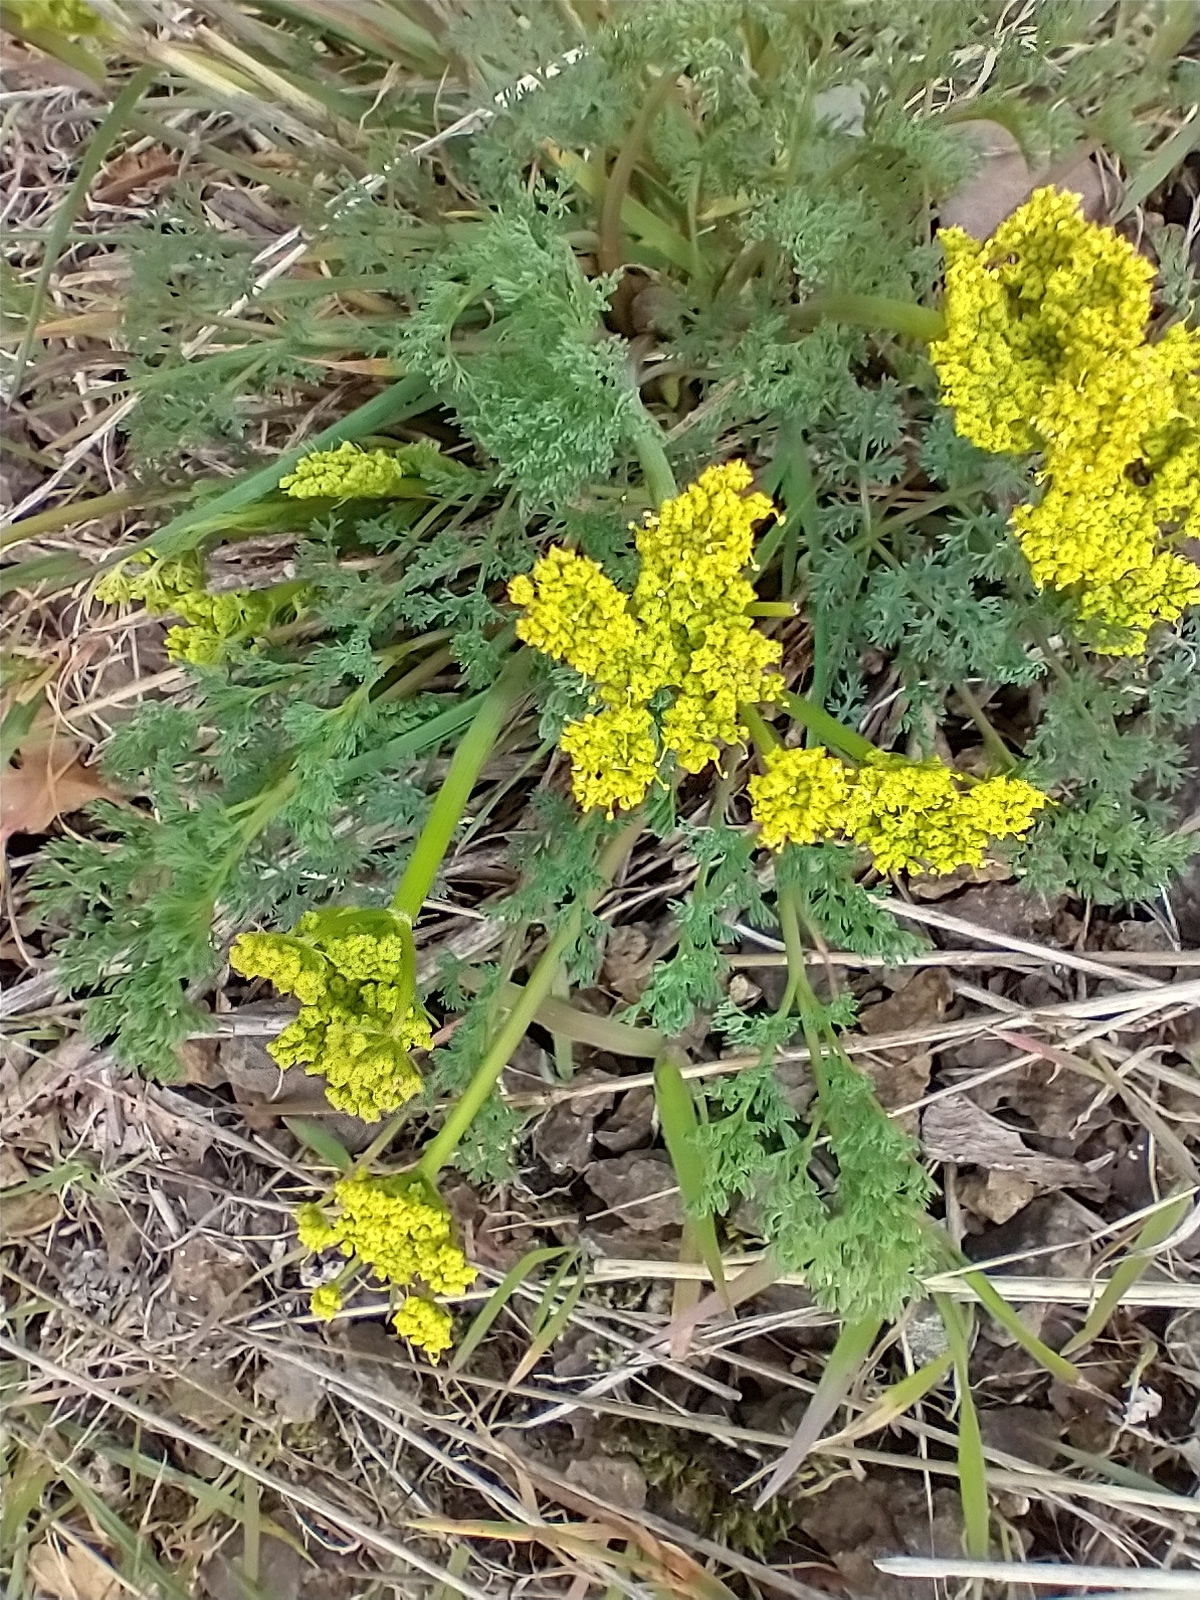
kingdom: Plantae
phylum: Tracheophyta
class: Magnoliopsida
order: Apiales
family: Apiaceae
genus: Lomatium
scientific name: Lomatium papilioniferum
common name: Butterfly lomatium
